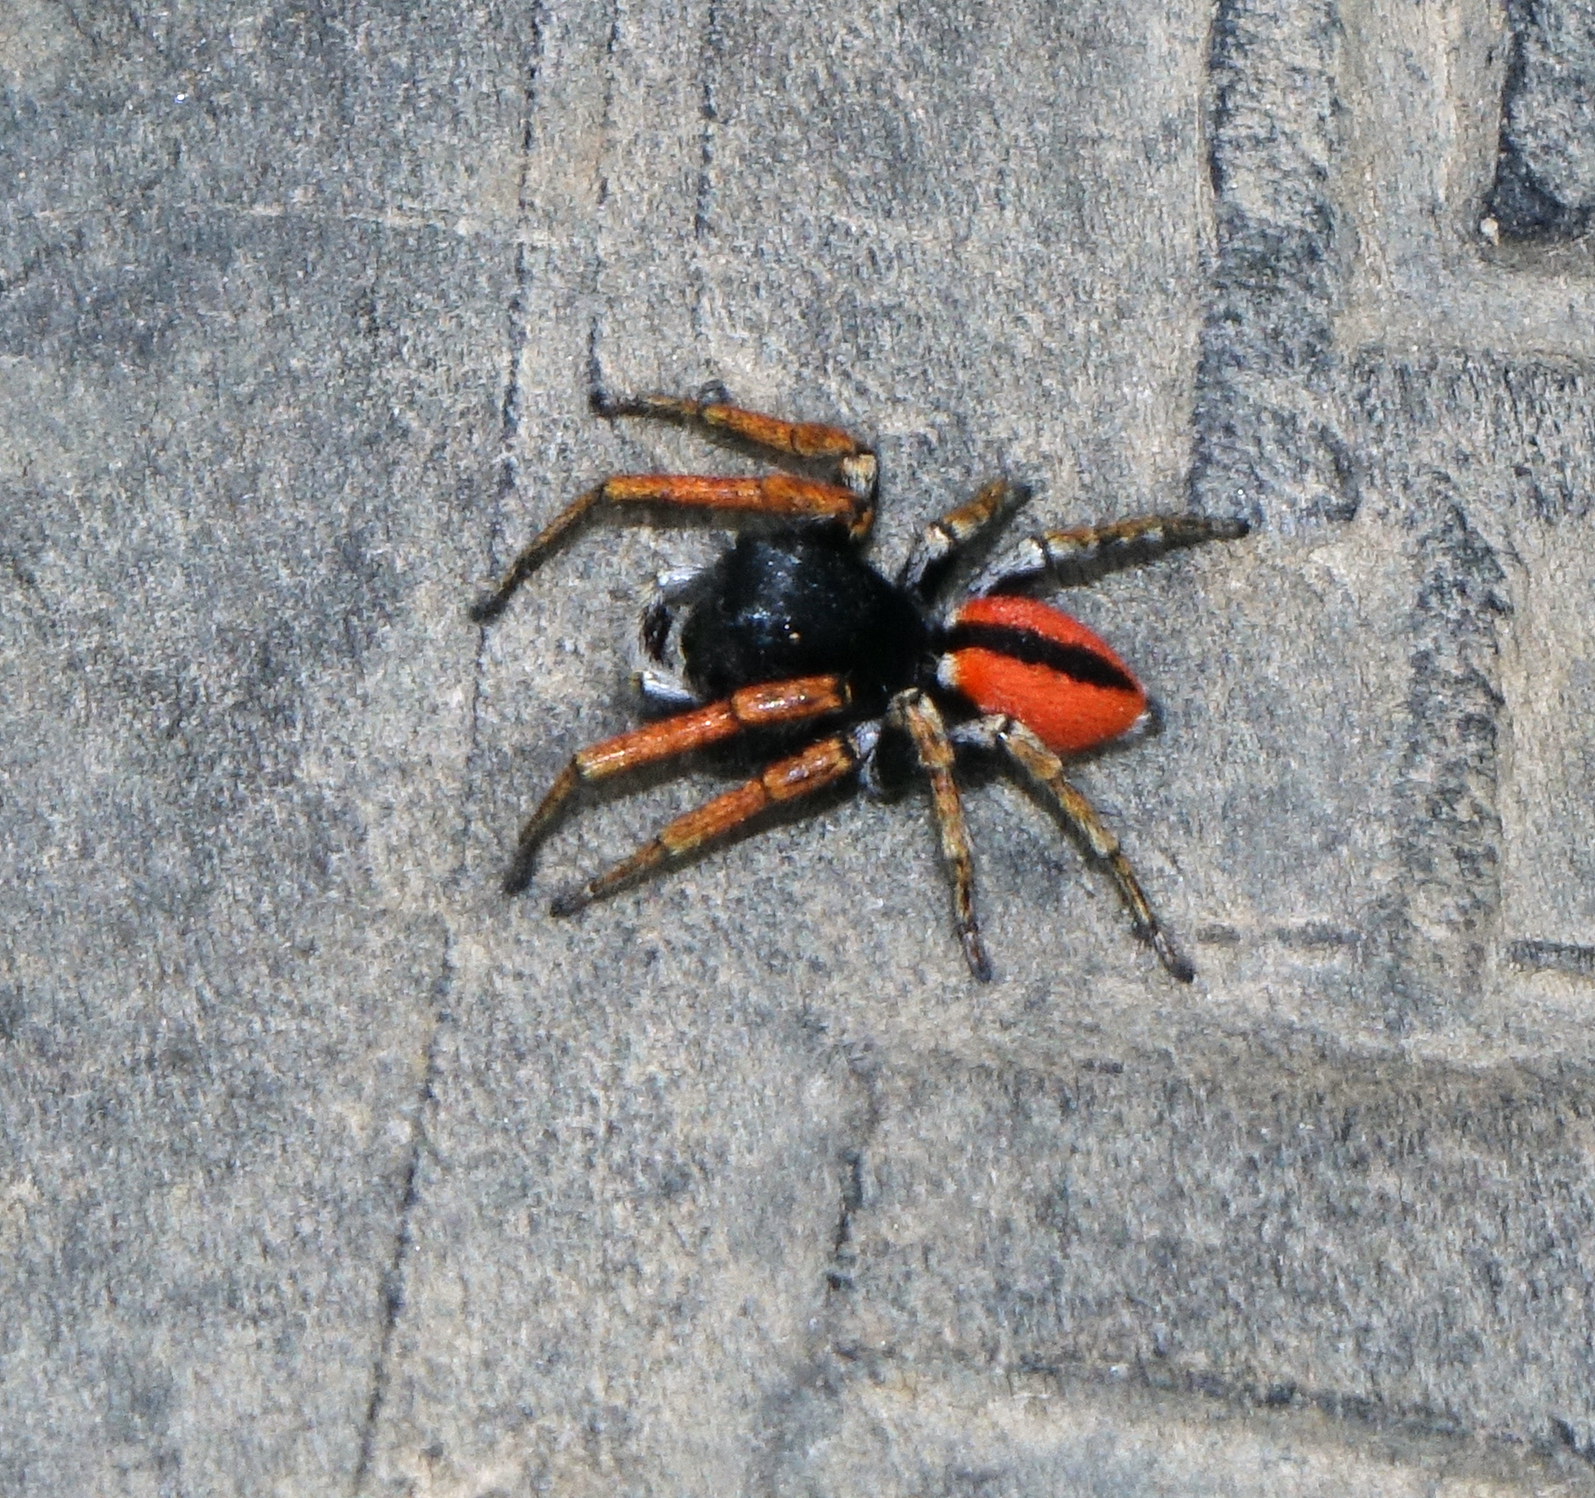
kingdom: Animalia
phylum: Arthropoda
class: Arachnida
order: Araneae
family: Salticidae
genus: Philaeus
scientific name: Philaeus chrysops
